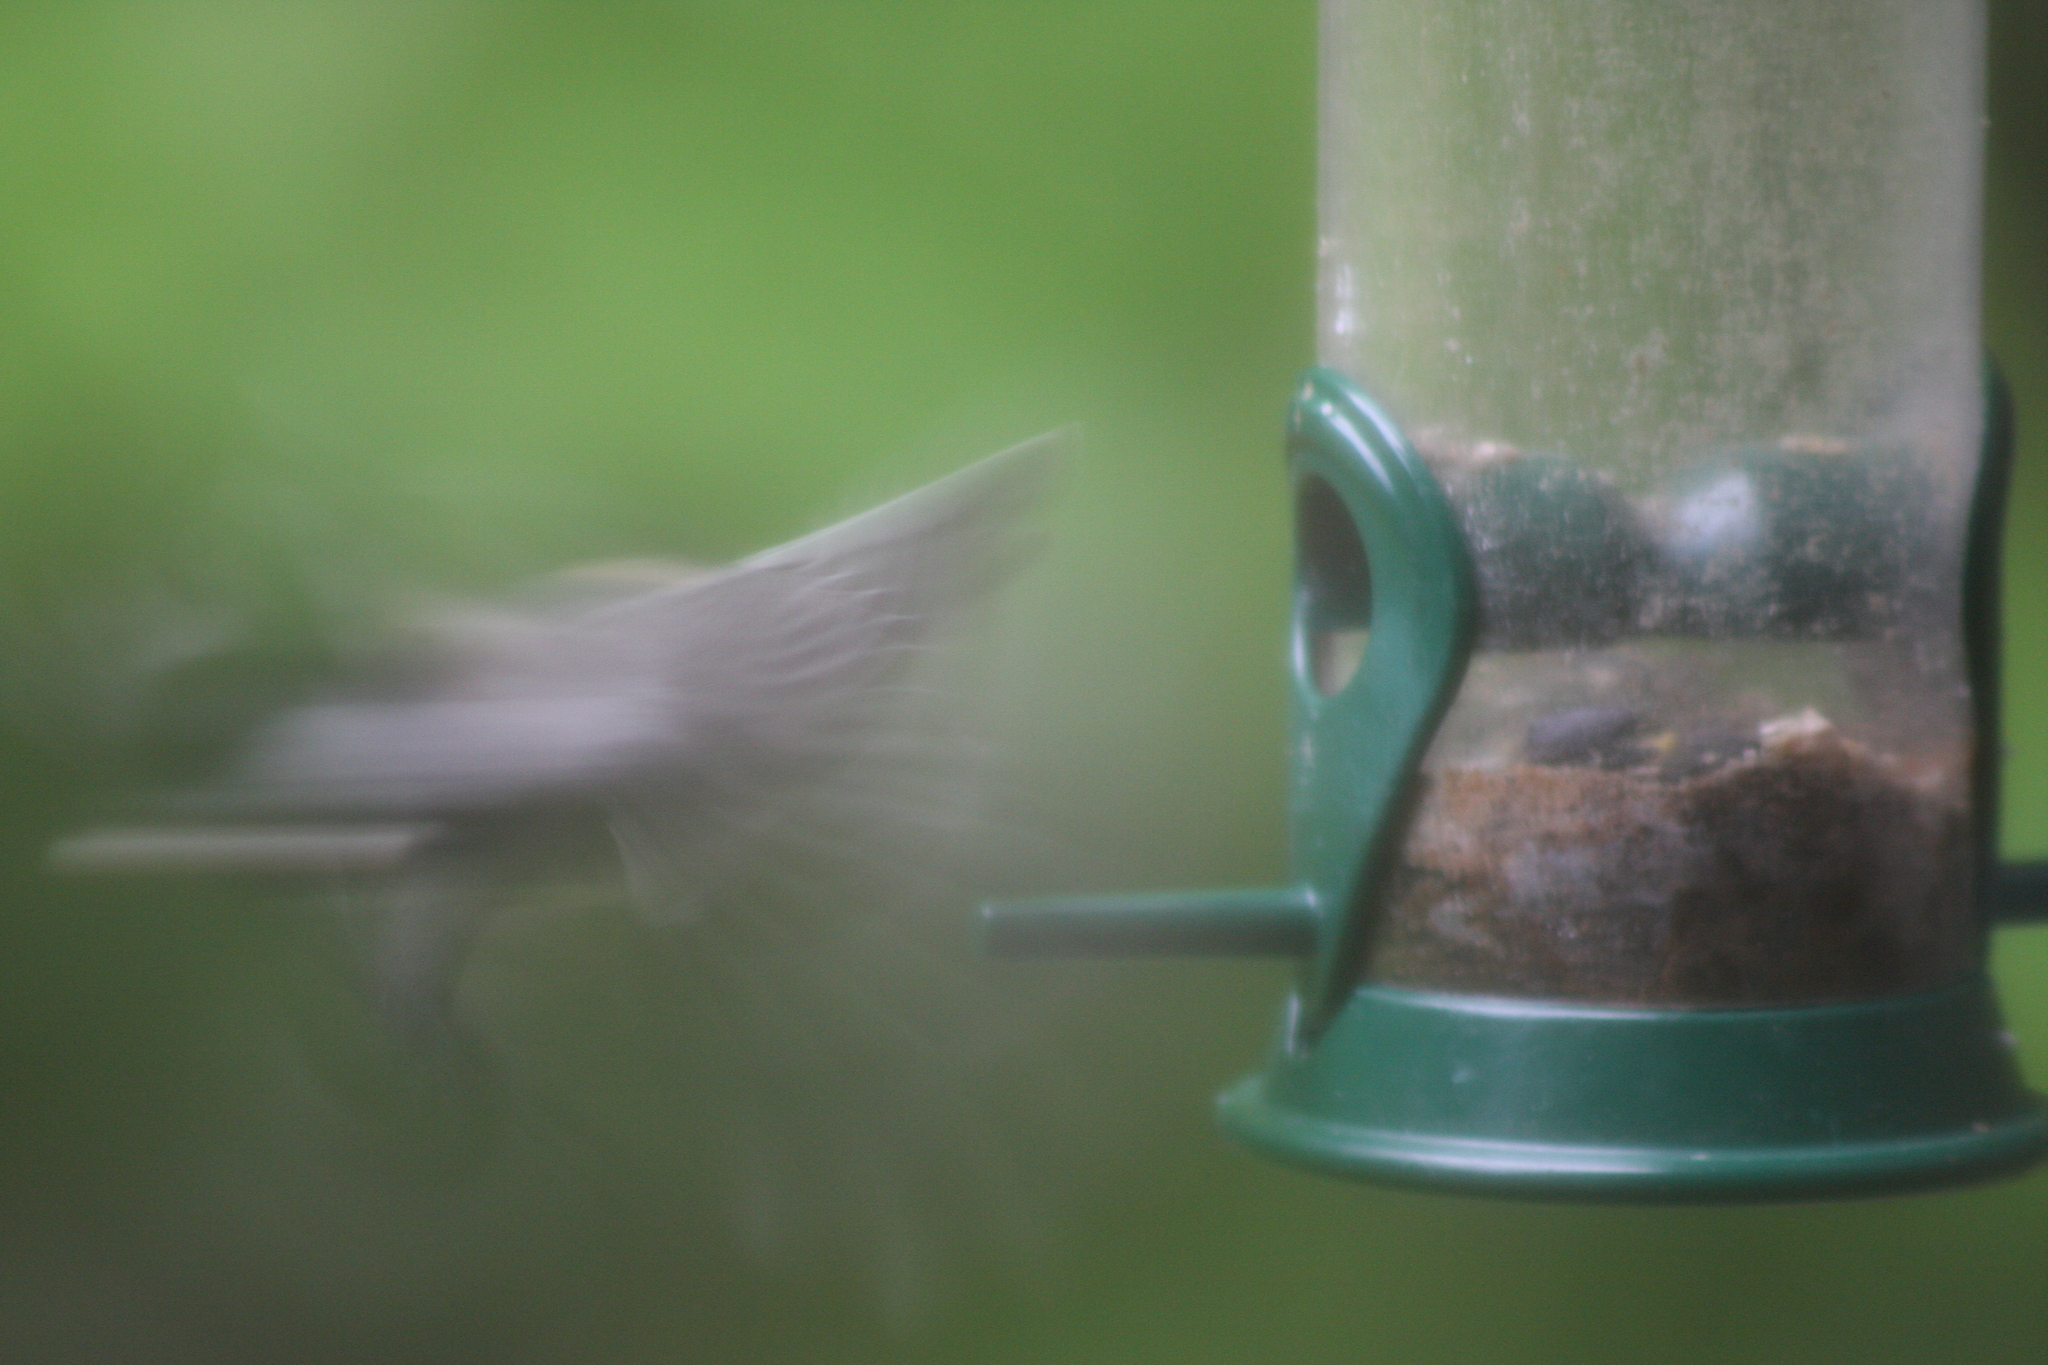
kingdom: Animalia
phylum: Chordata
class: Aves
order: Passeriformes
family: Paridae
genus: Poecile
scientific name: Poecile atricapillus
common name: Black-capped chickadee
